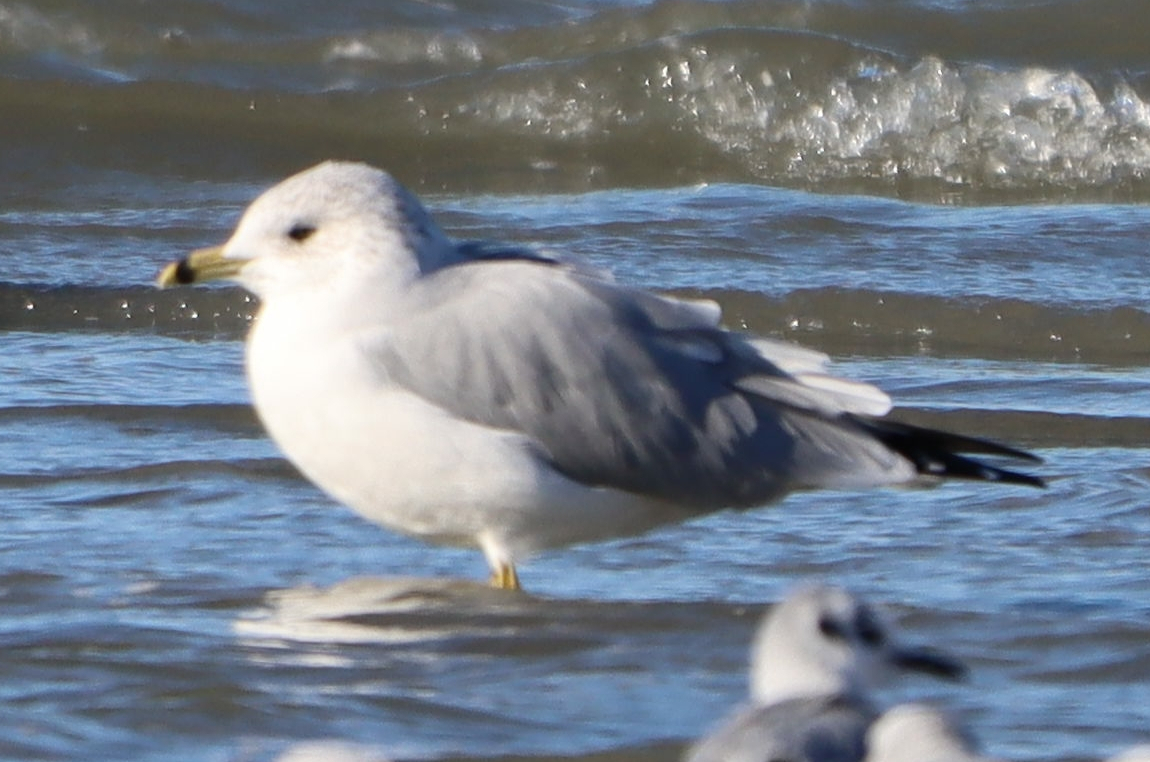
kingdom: Animalia
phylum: Chordata
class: Aves
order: Charadriiformes
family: Laridae
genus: Larus
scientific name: Larus delawarensis
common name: Ring-billed gull
